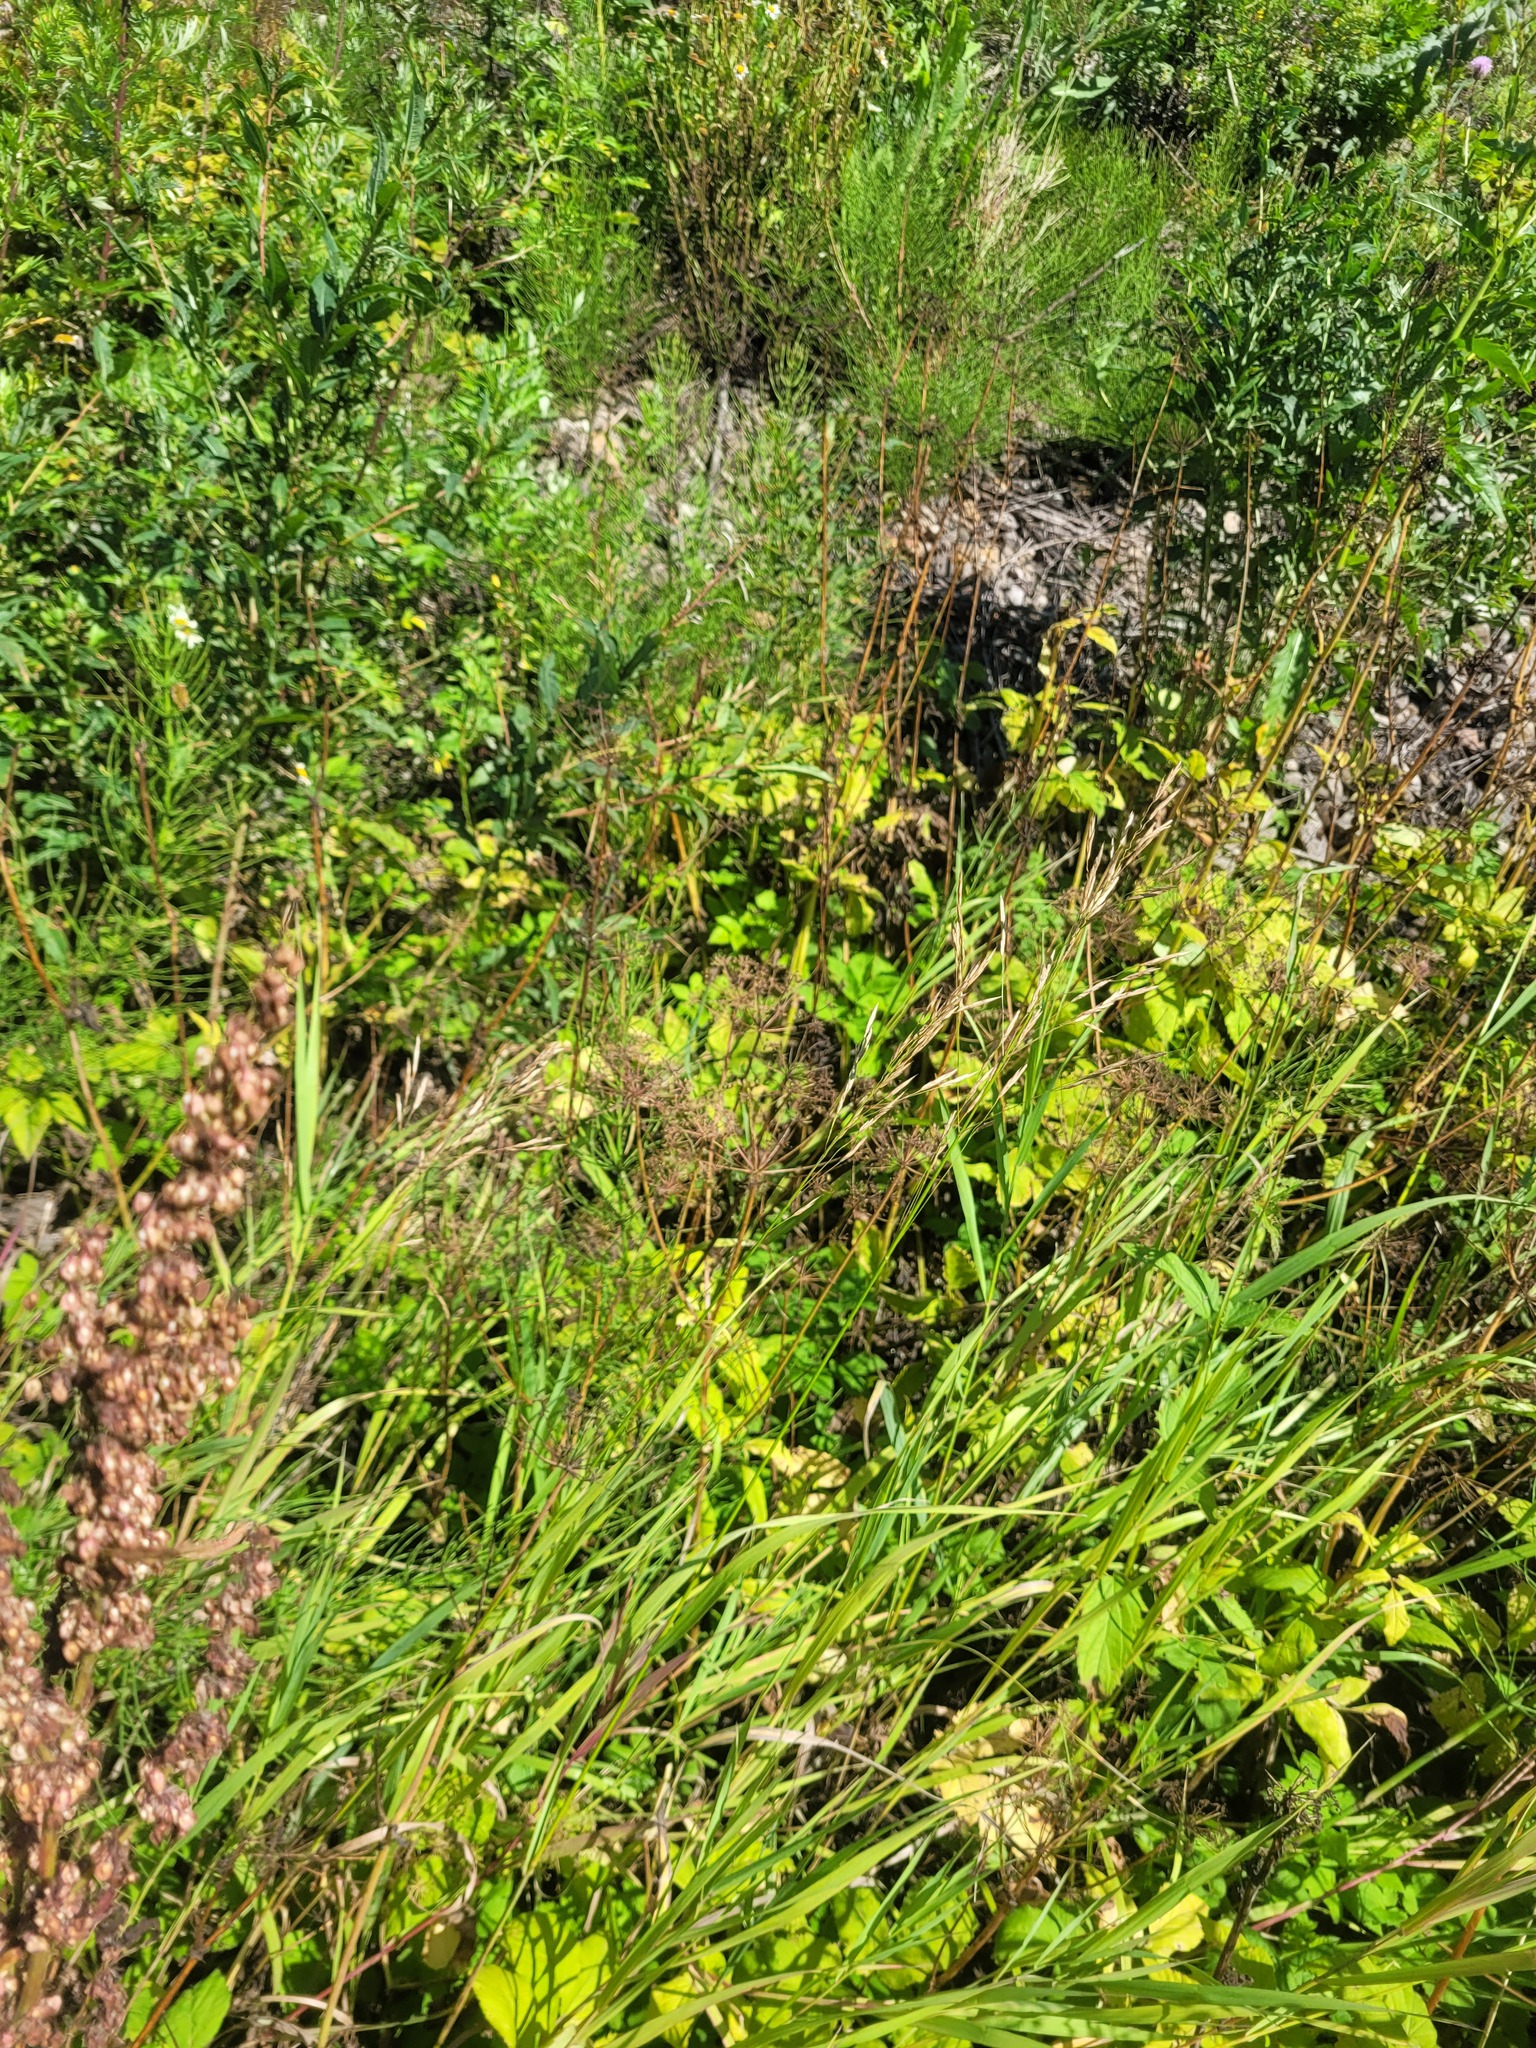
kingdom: Plantae
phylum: Tracheophyta
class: Liliopsida
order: Poales
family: Poaceae
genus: Bromus
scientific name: Bromus inermis
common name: Smooth brome
